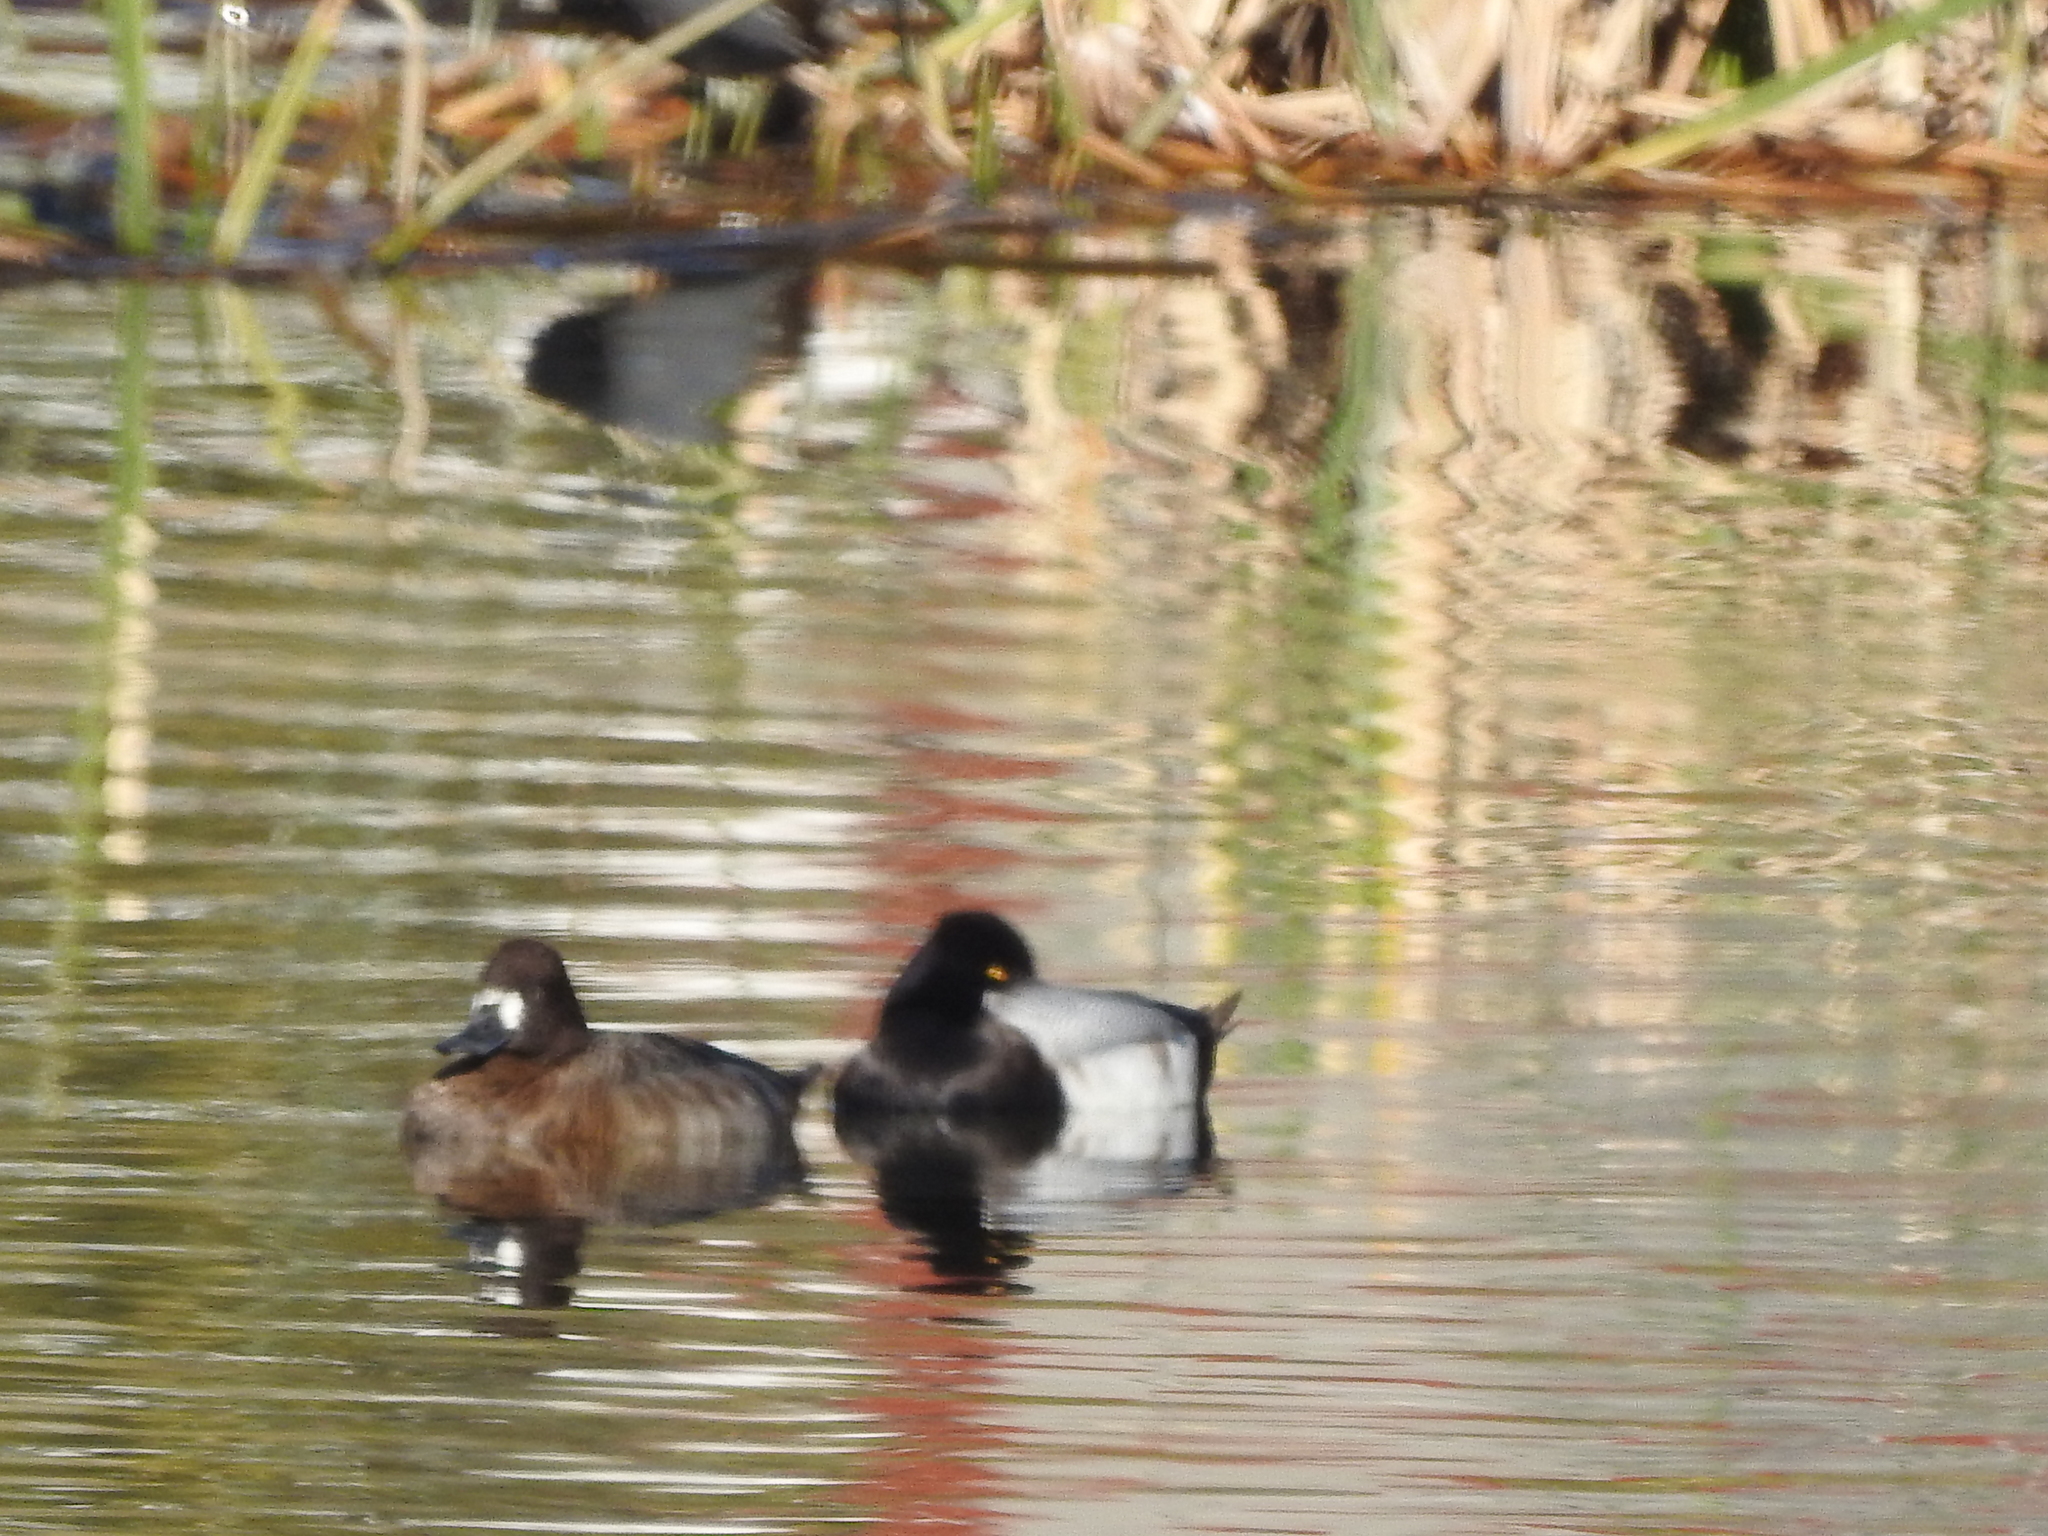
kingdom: Animalia
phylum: Chordata
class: Aves
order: Anseriformes
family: Anatidae
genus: Aythya
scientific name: Aythya affinis
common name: Lesser scaup
